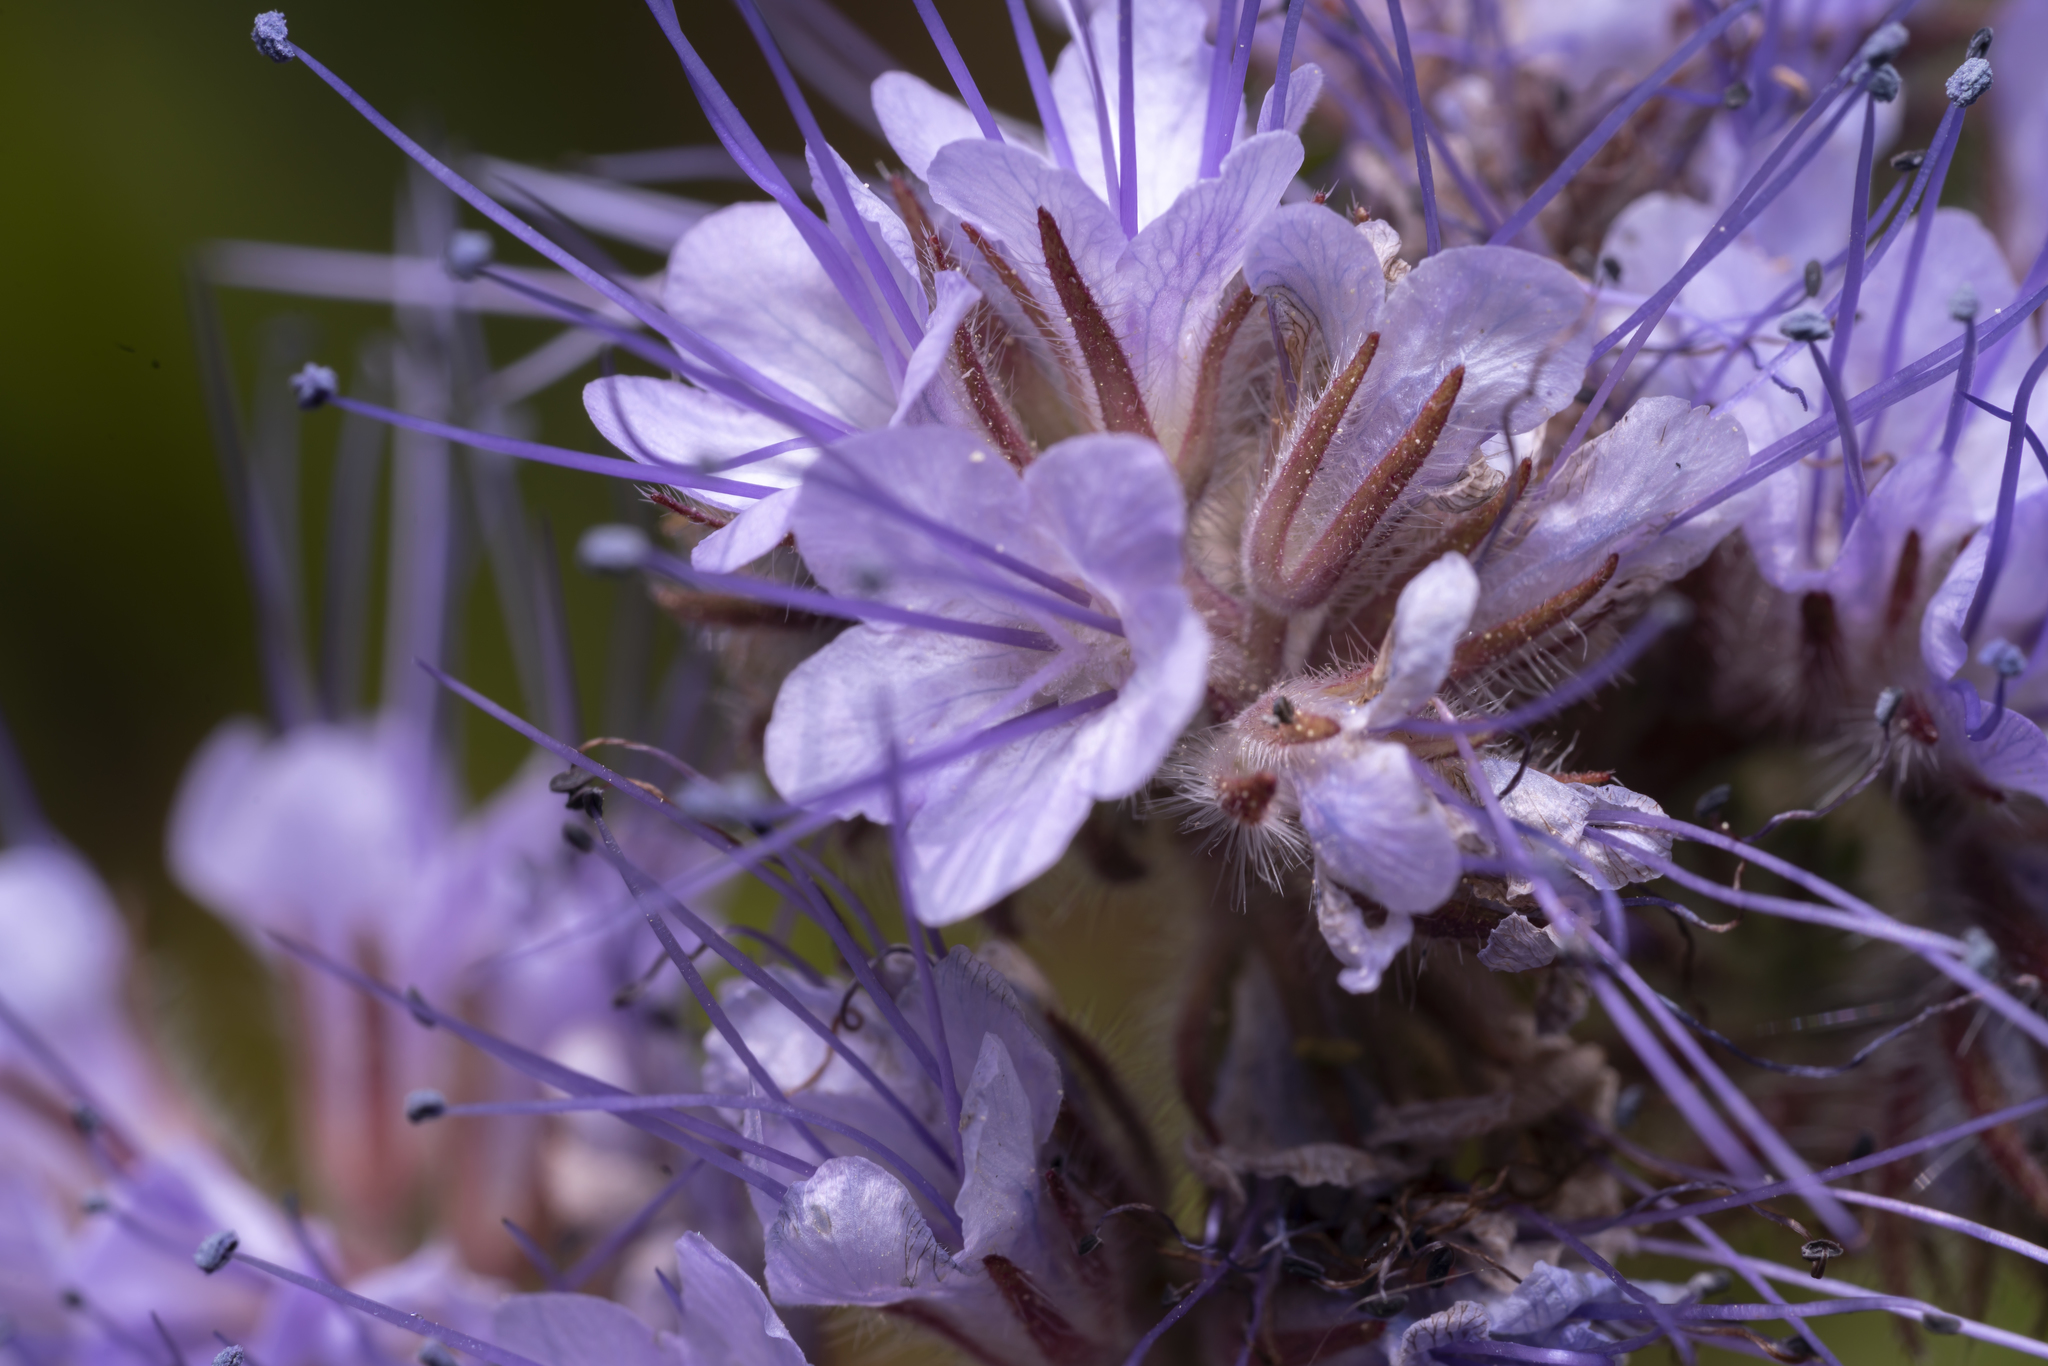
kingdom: Plantae
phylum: Tracheophyta
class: Magnoliopsida
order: Boraginales
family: Hydrophyllaceae
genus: Phacelia
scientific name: Phacelia tanacetifolia
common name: Phacelia
